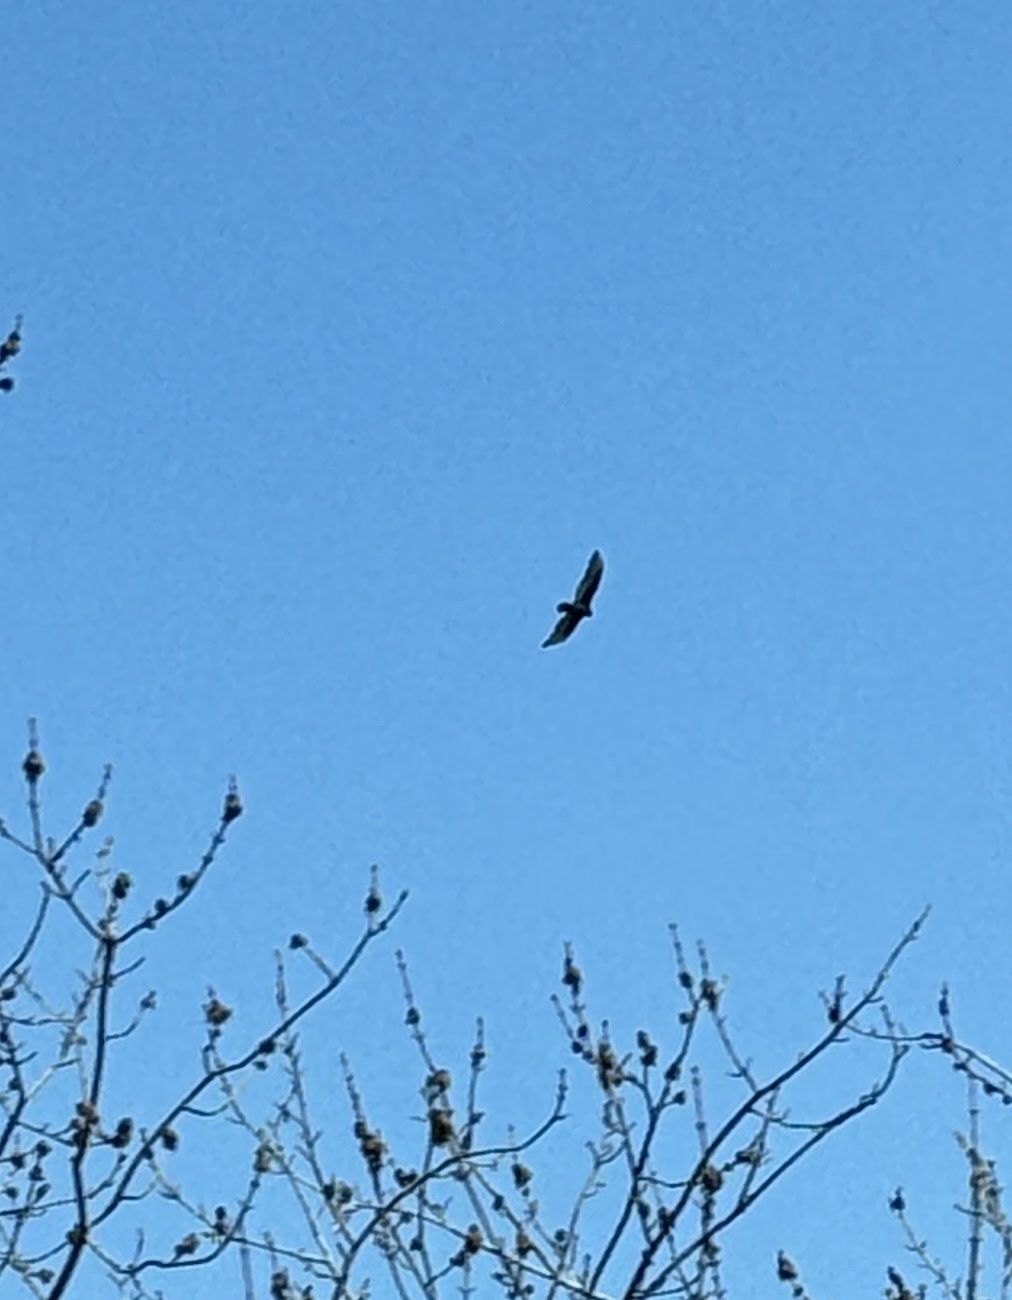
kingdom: Animalia
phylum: Chordata
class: Aves
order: Accipitriformes
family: Cathartidae
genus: Cathartes
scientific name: Cathartes aura
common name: Turkey vulture
